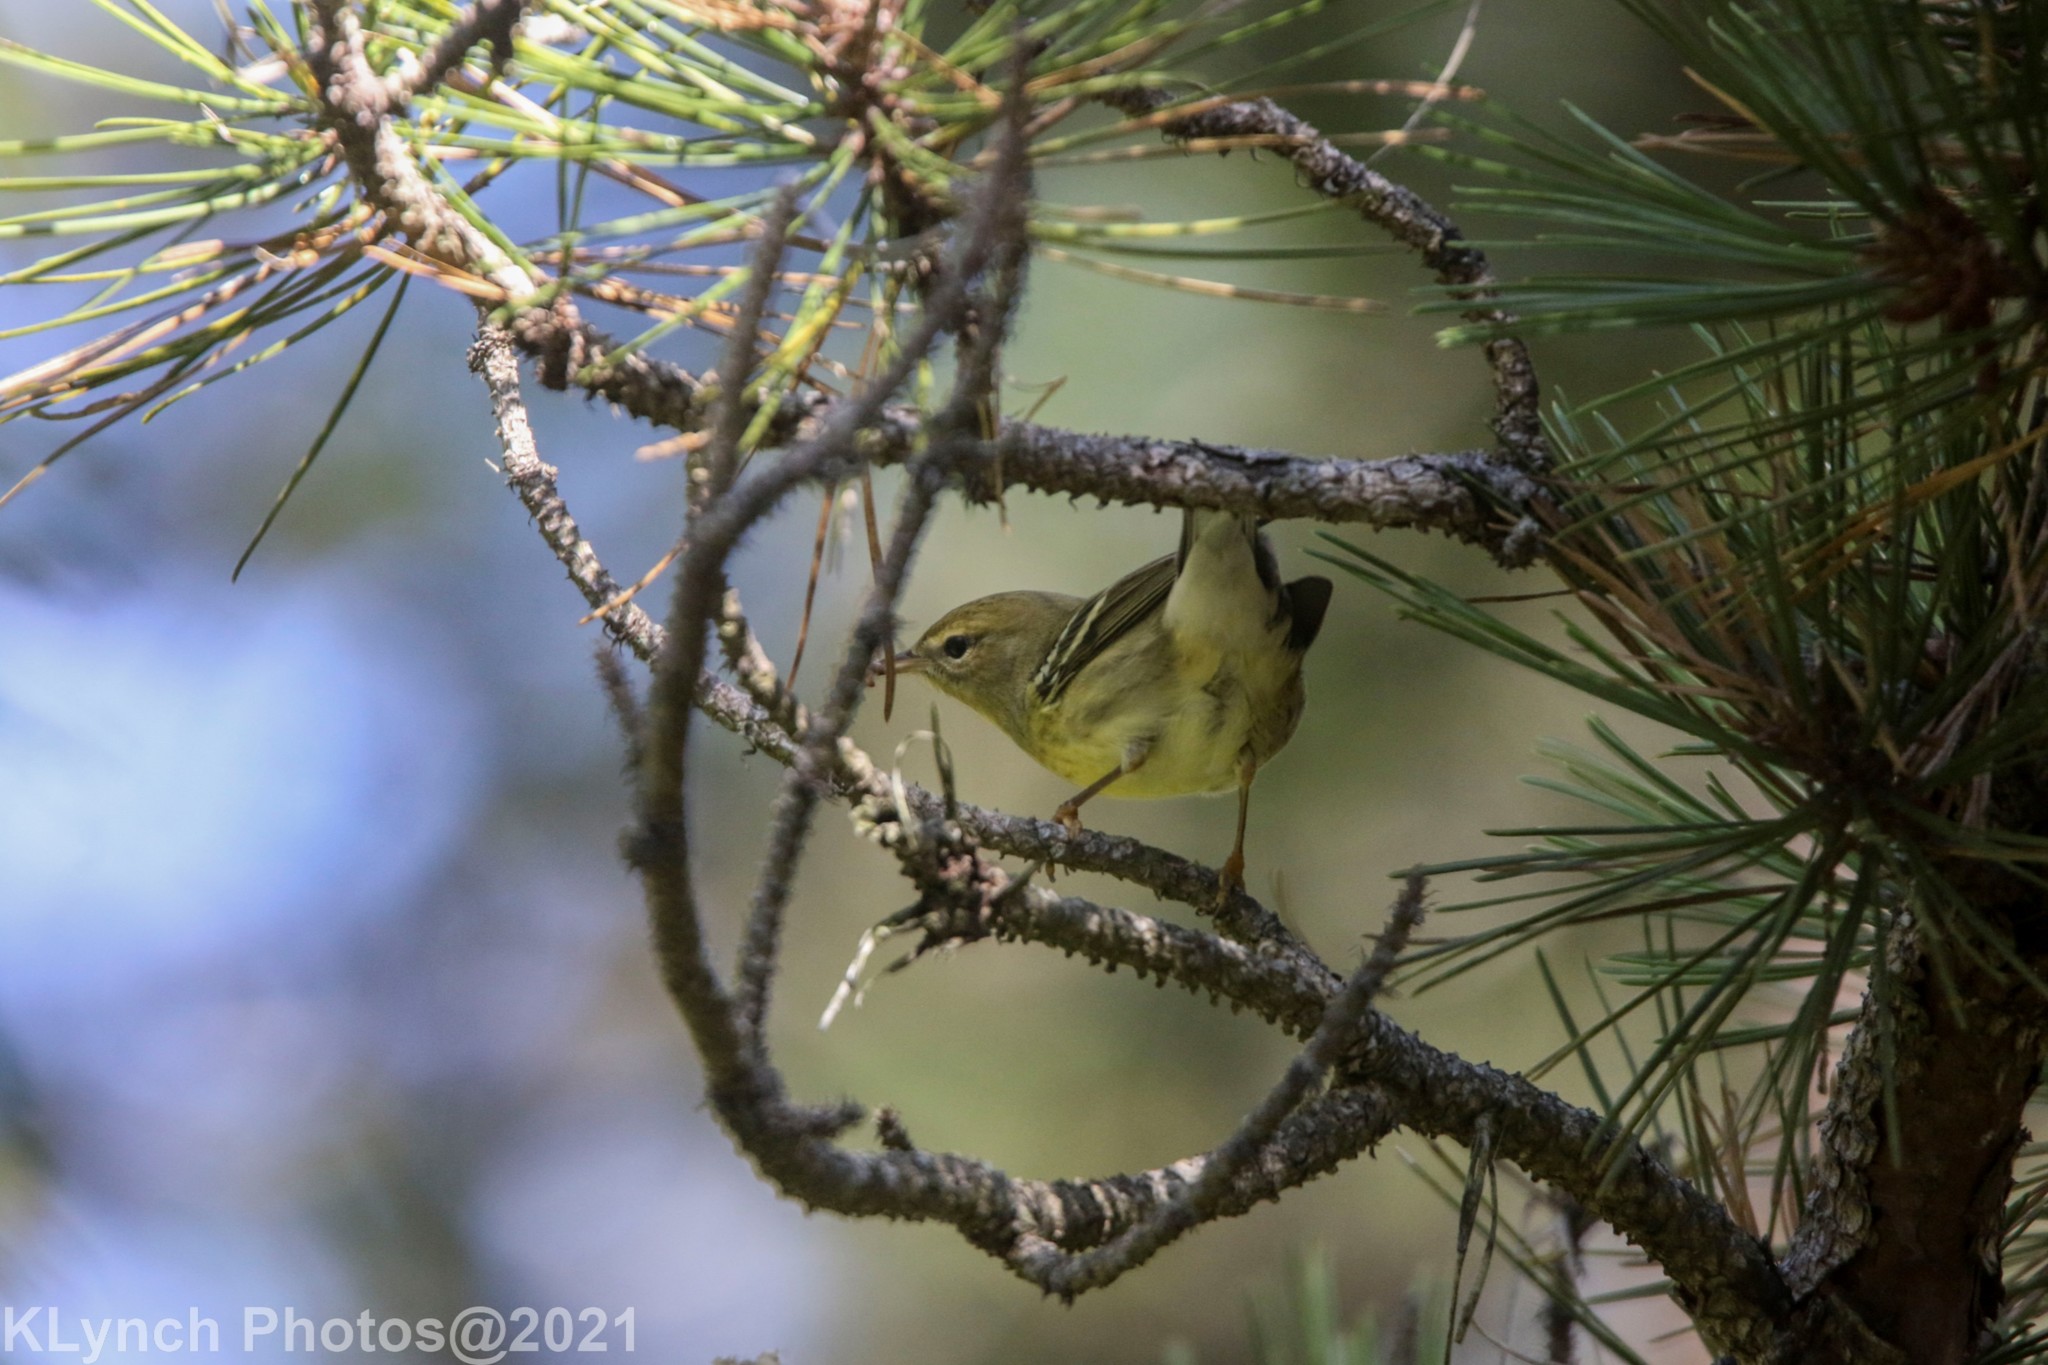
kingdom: Animalia
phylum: Chordata
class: Aves
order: Passeriformes
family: Parulidae
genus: Setophaga
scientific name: Setophaga pinus
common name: Pine warbler
